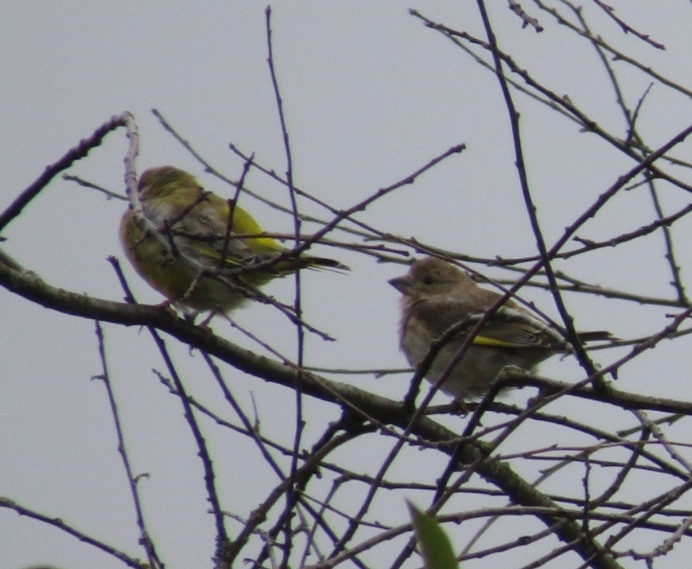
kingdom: Plantae
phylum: Tracheophyta
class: Liliopsida
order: Poales
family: Poaceae
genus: Chloris
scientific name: Chloris chloris
